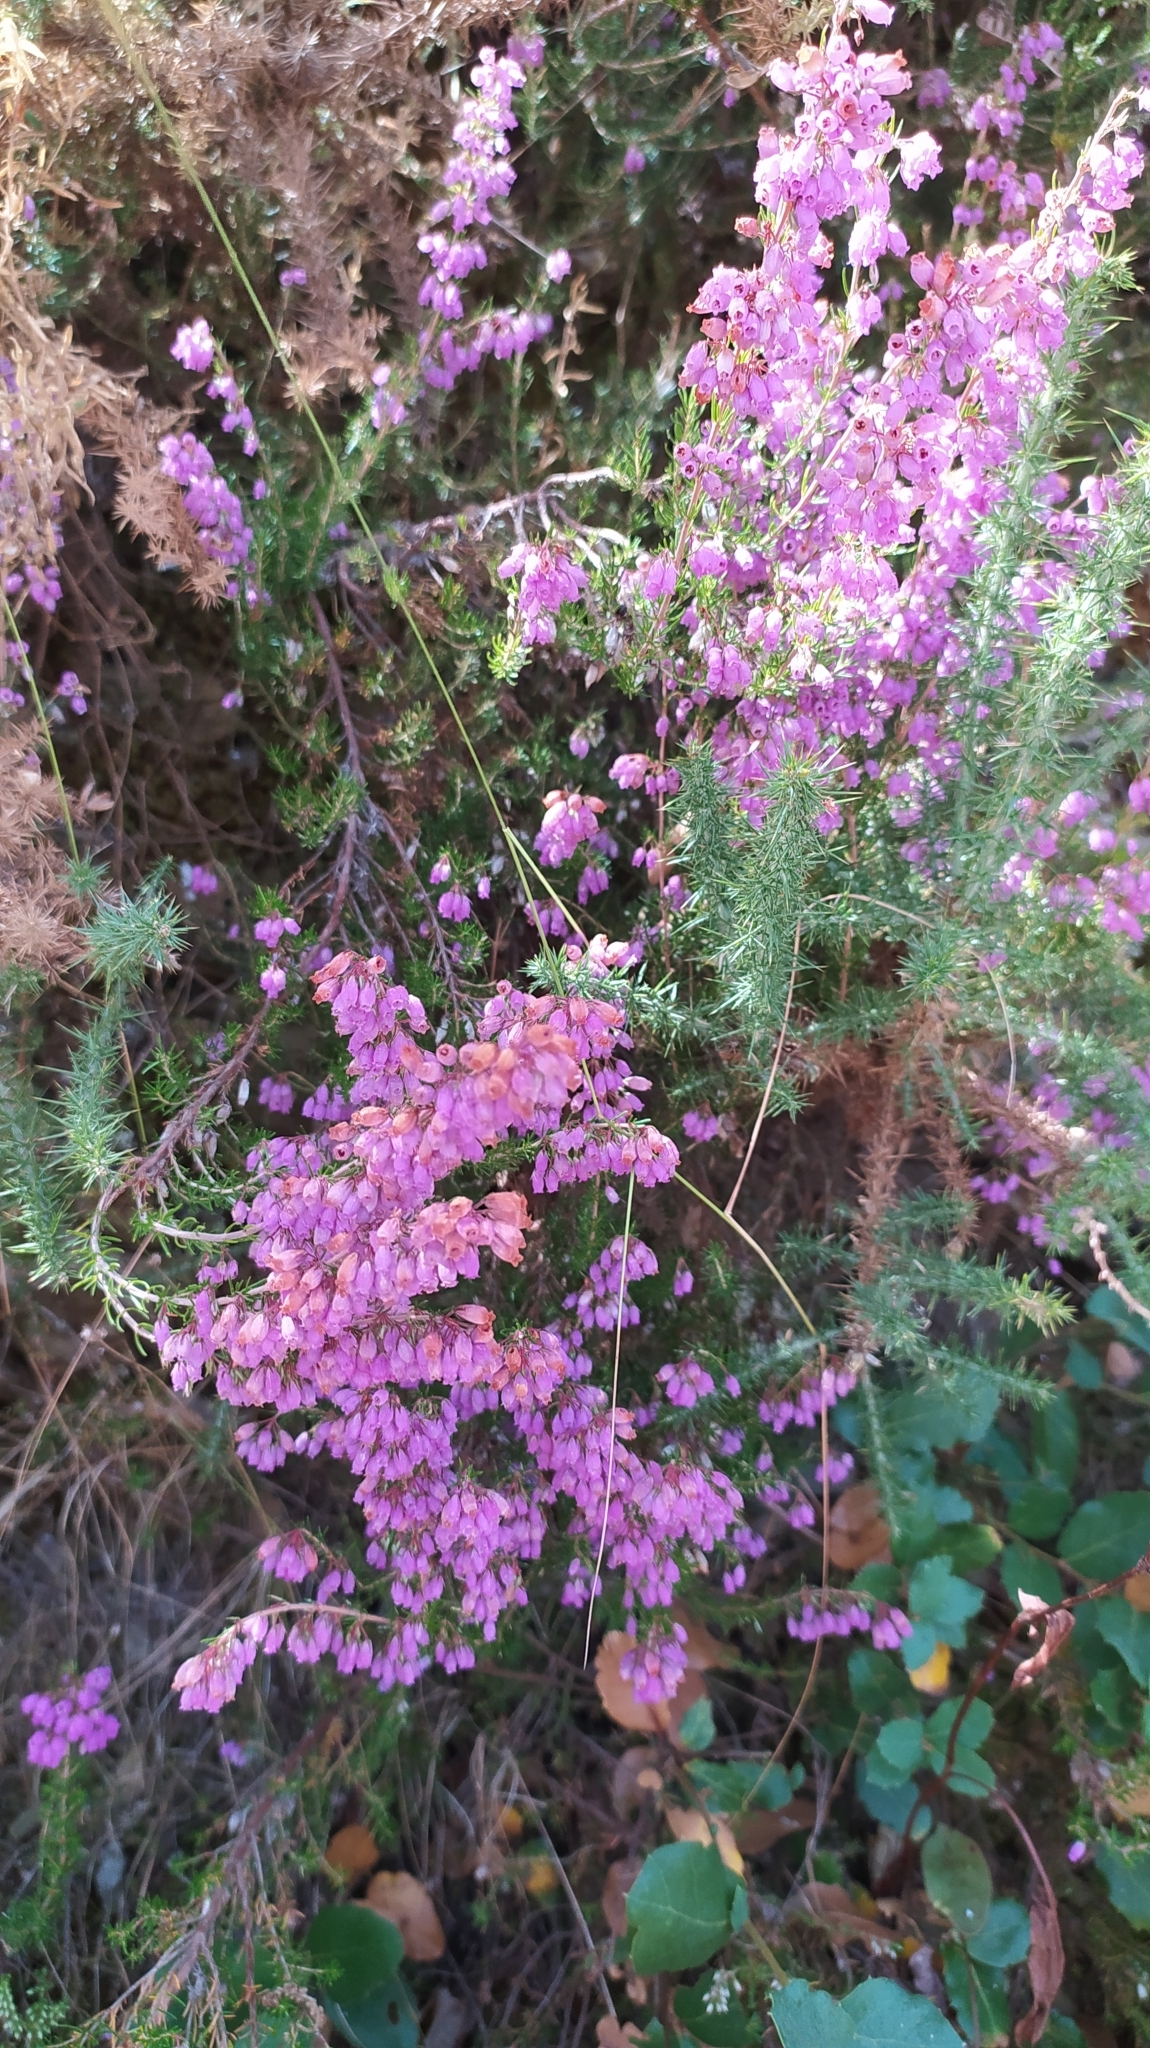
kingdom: Plantae
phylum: Tracheophyta
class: Magnoliopsida
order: Ericales
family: Ericaceae
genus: Erica
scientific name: Erica cinerea
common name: Bell heather
